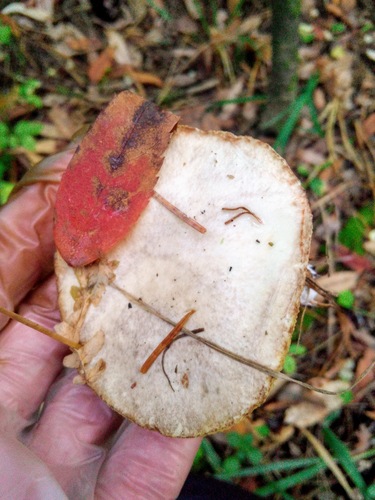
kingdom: Fungi
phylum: Basidiomycota
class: Agaricomycetes
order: Boletales
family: Suillaceae
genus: Suillus
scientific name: Suillus placidus
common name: Slippery white bolete
